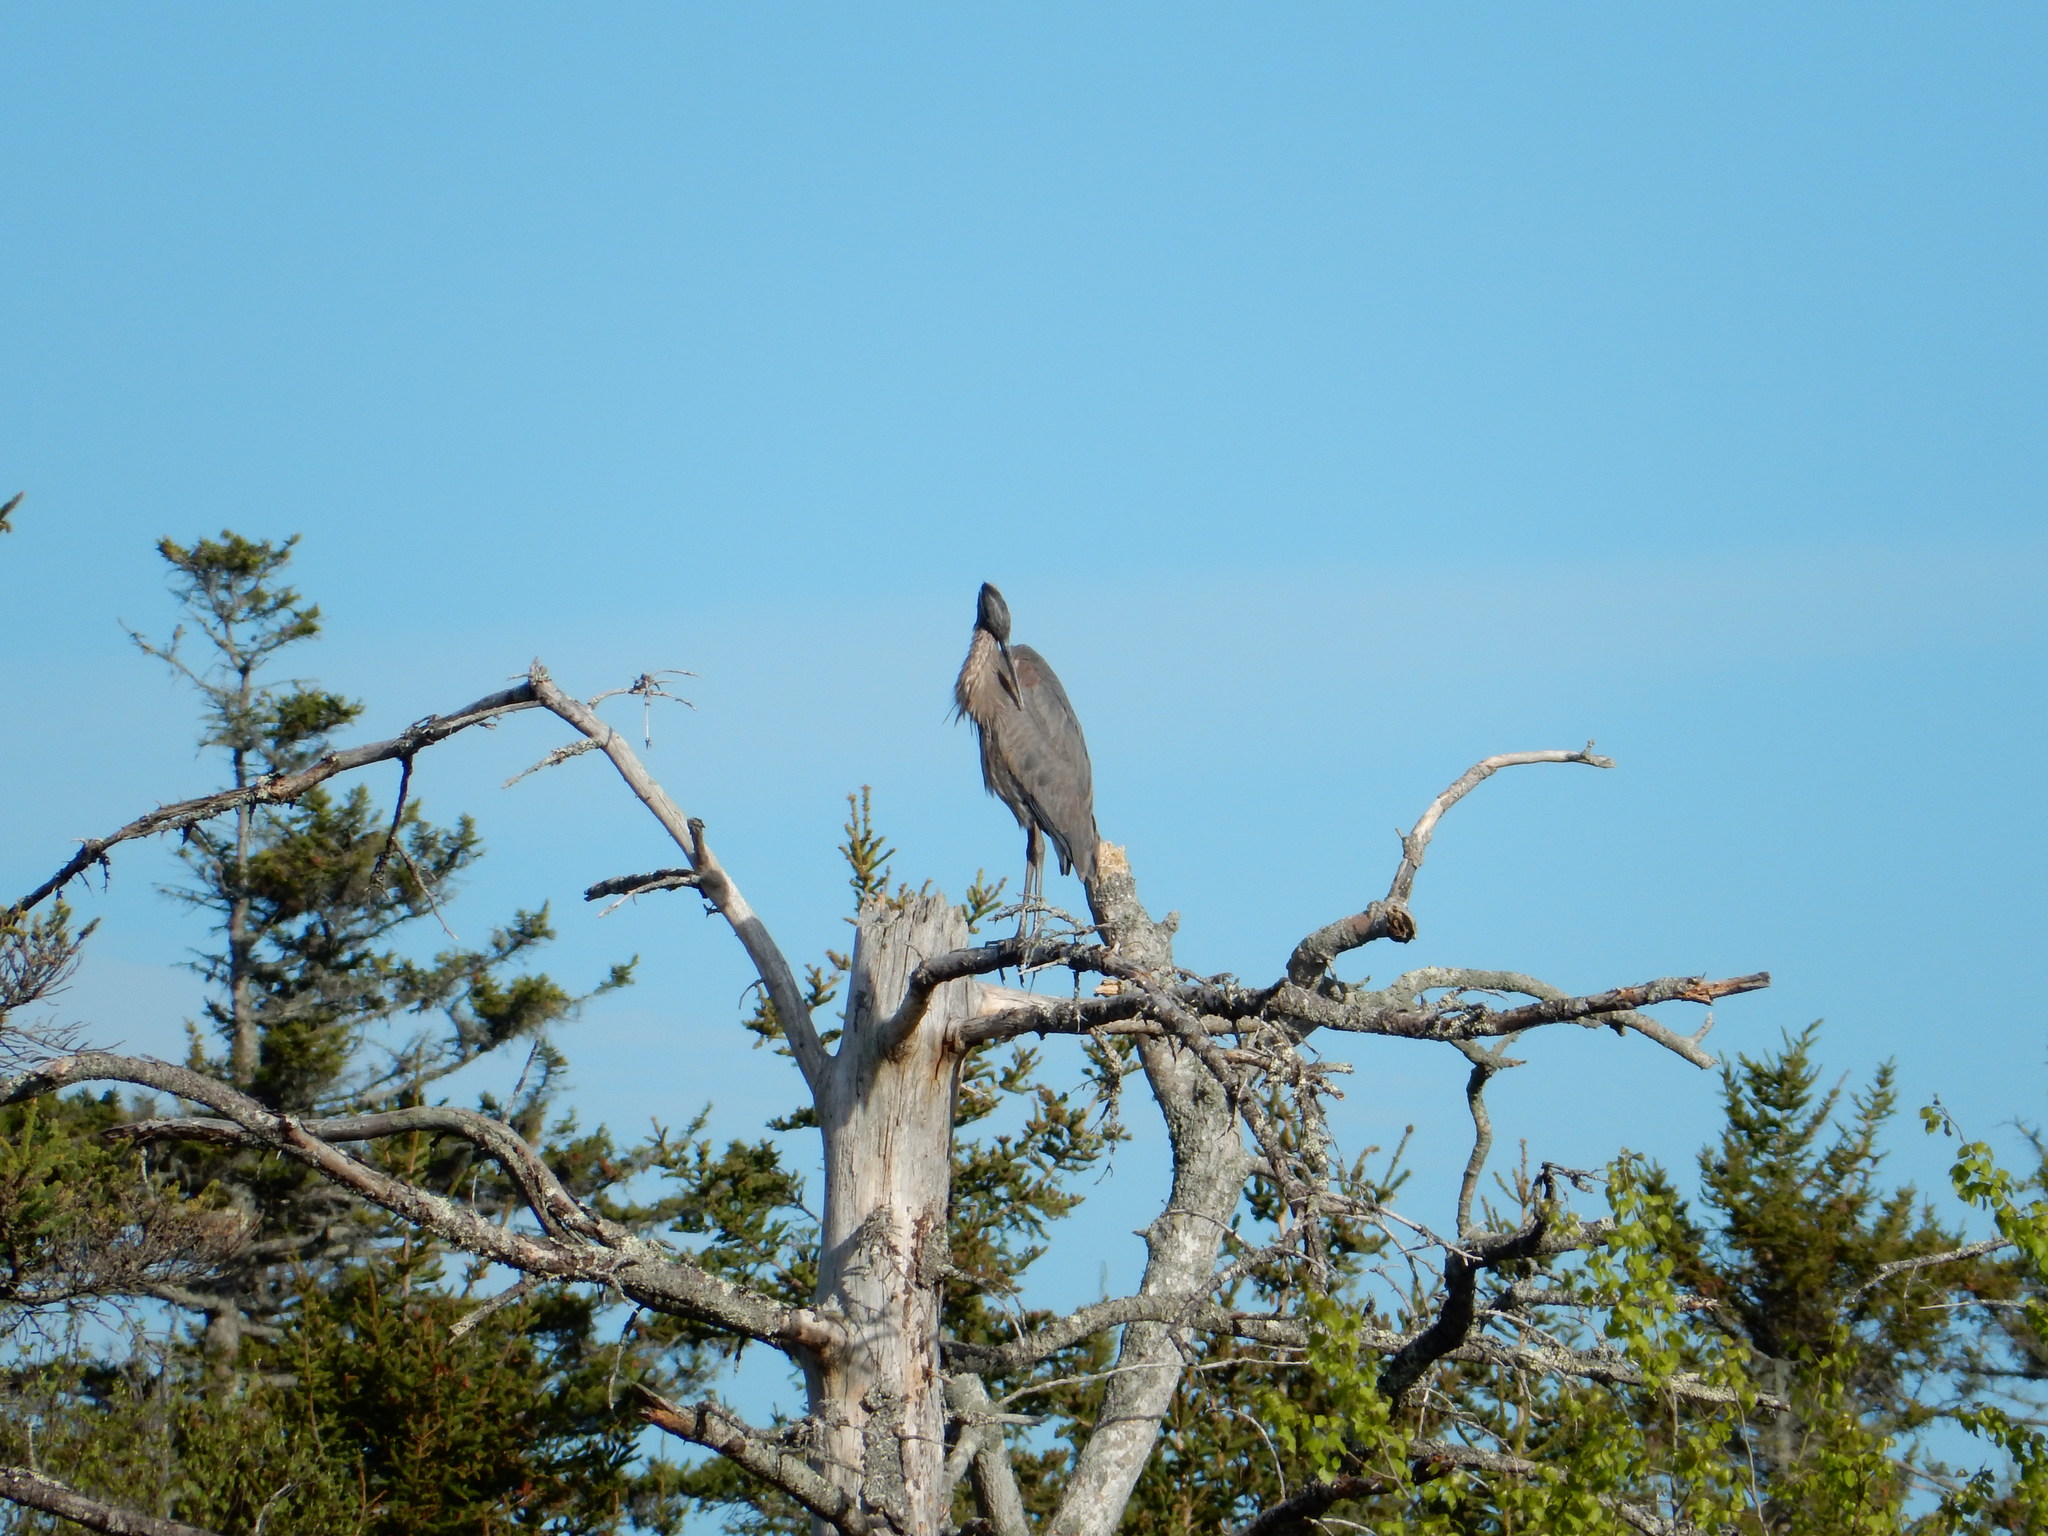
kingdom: Animalia
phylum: Chordata
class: Aves
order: Pelecaniformes
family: Ardeidae
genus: Ardea
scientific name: Ardea herodias
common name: Great blue heron
